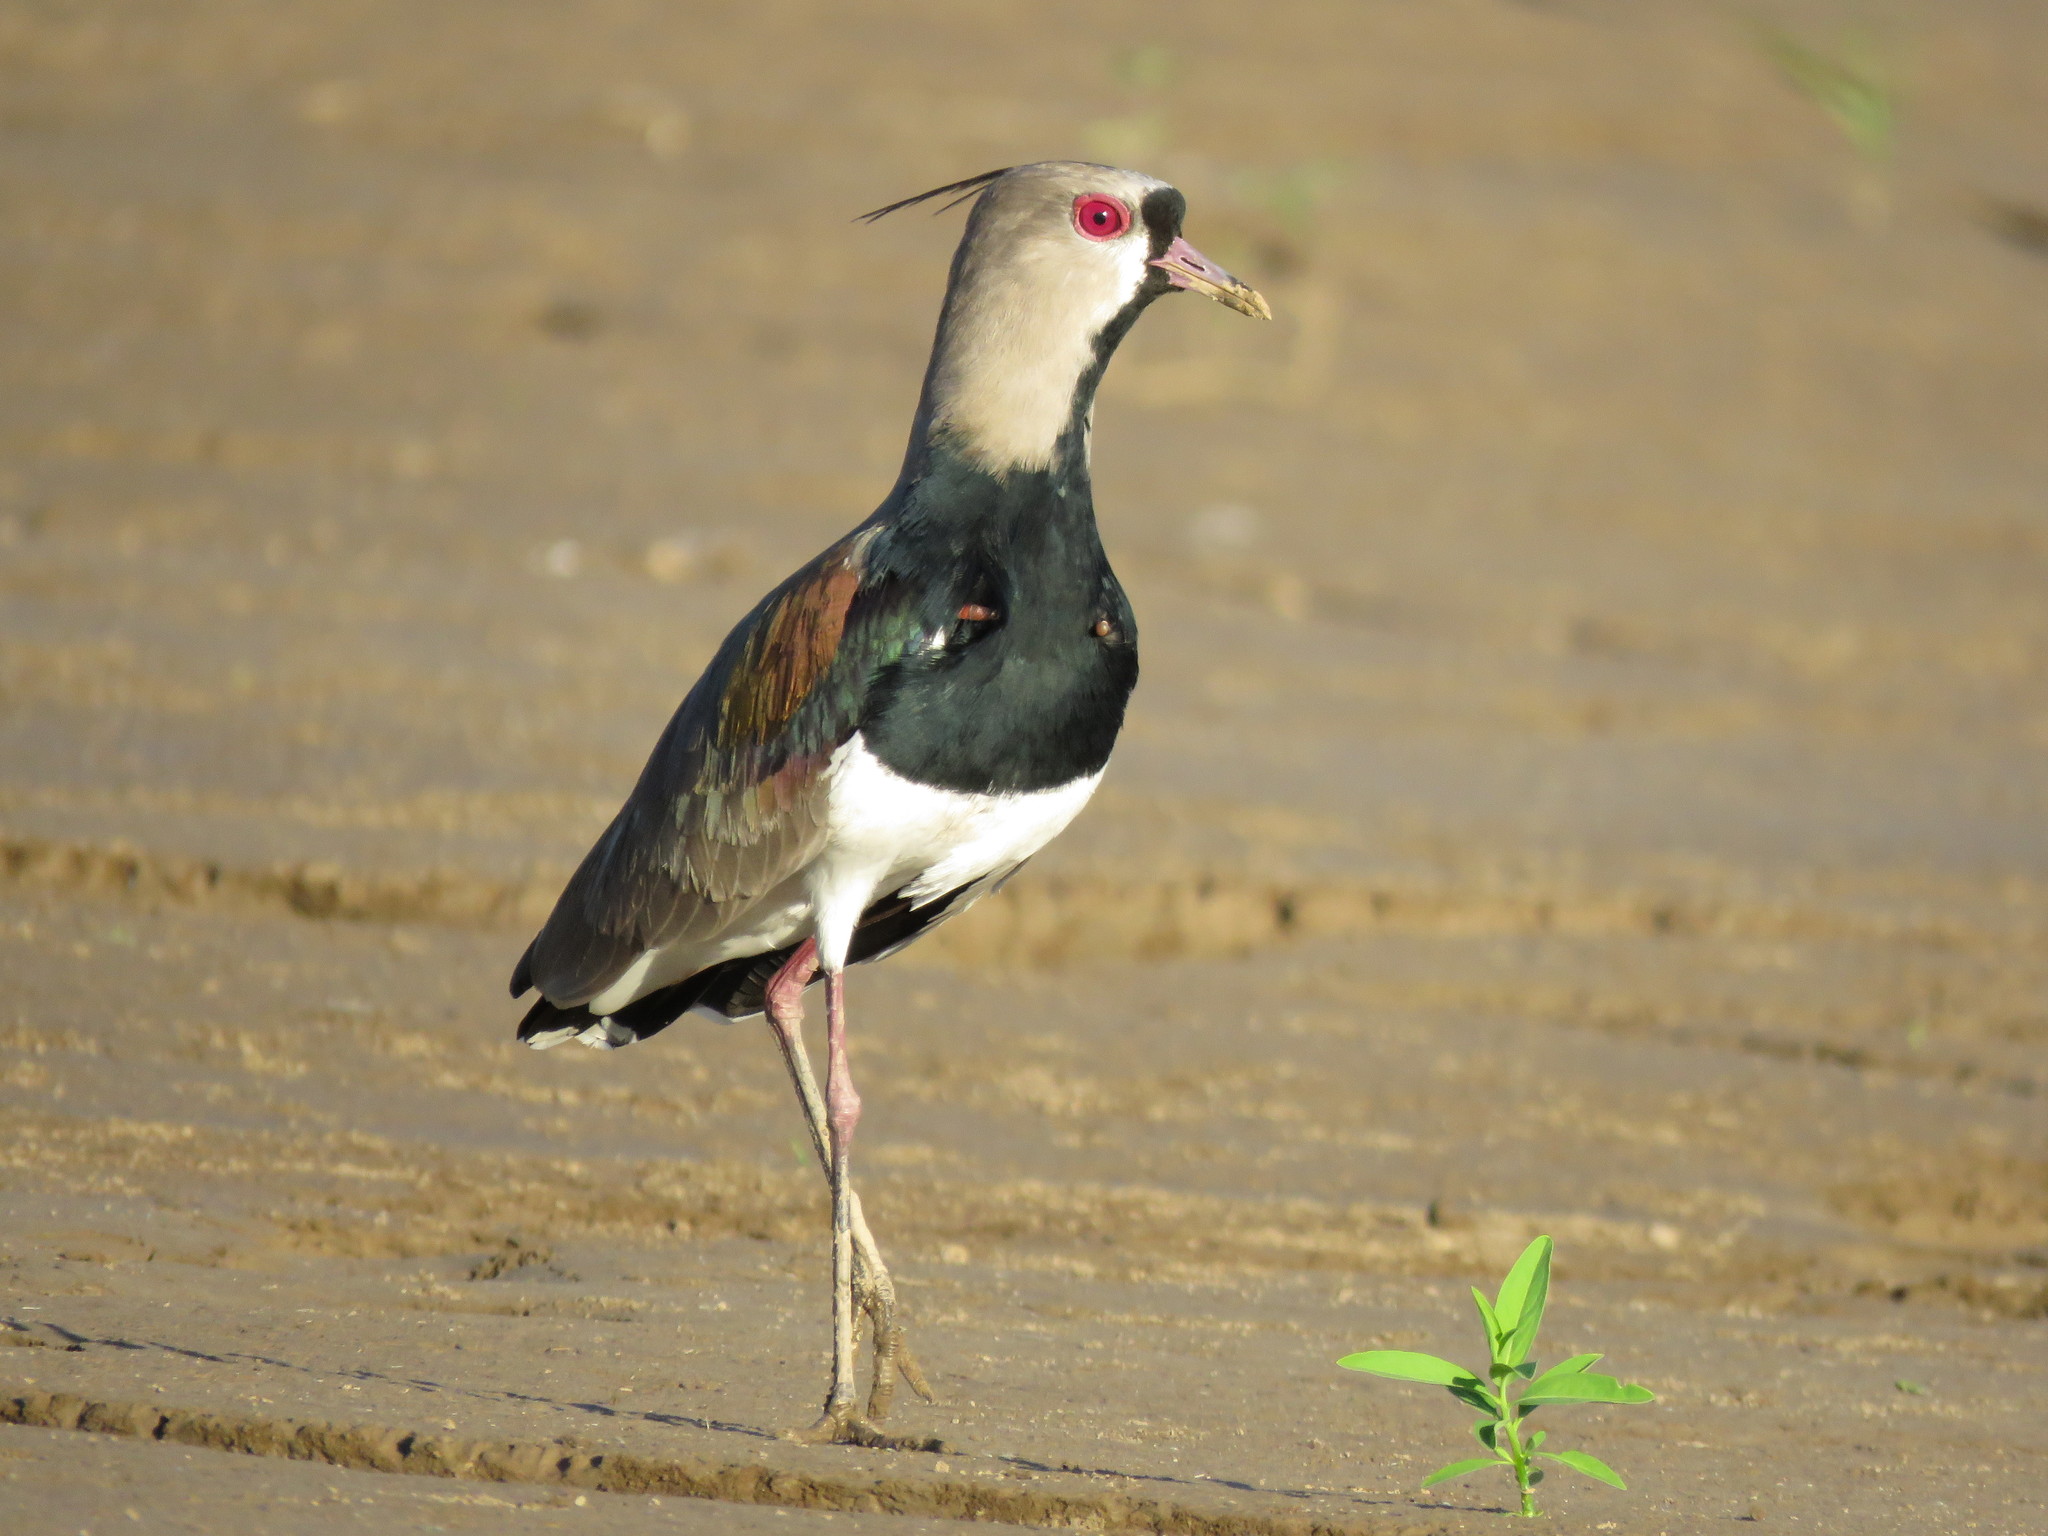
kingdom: Animalia
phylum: Chordata
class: Aves
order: Charadriiformes
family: Charadriidae
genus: Vanellus
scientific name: Vanellus chilensis
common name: Southern lapwing
